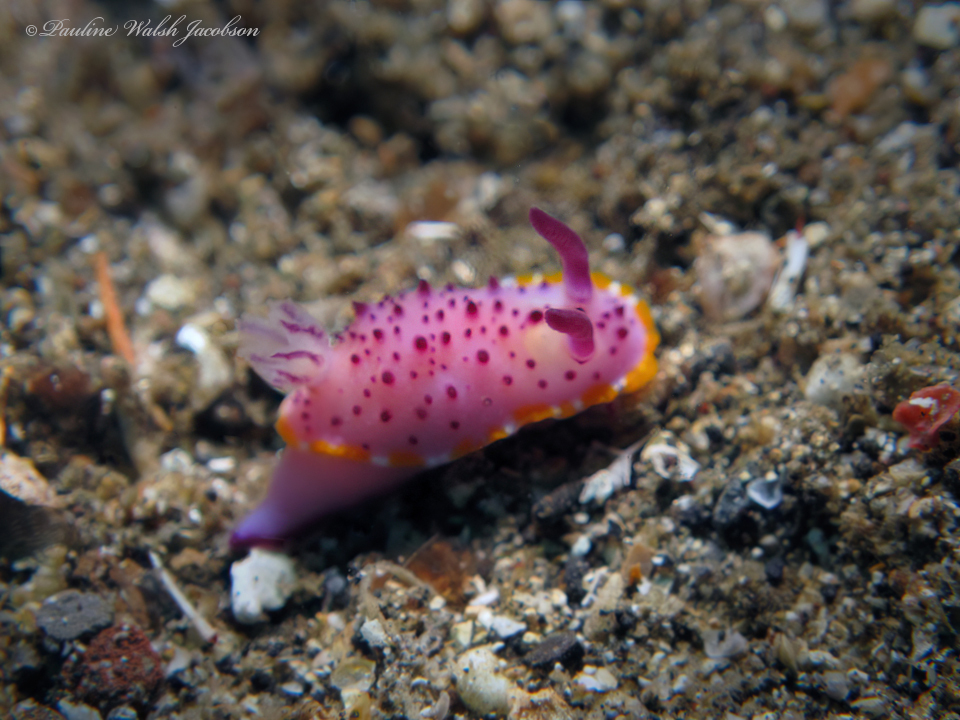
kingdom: Animalia
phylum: Mollusca
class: Gastropoda
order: Nudibranchia
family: Chromodorididae
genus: Mexichromis
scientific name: Mexichromis mariei
